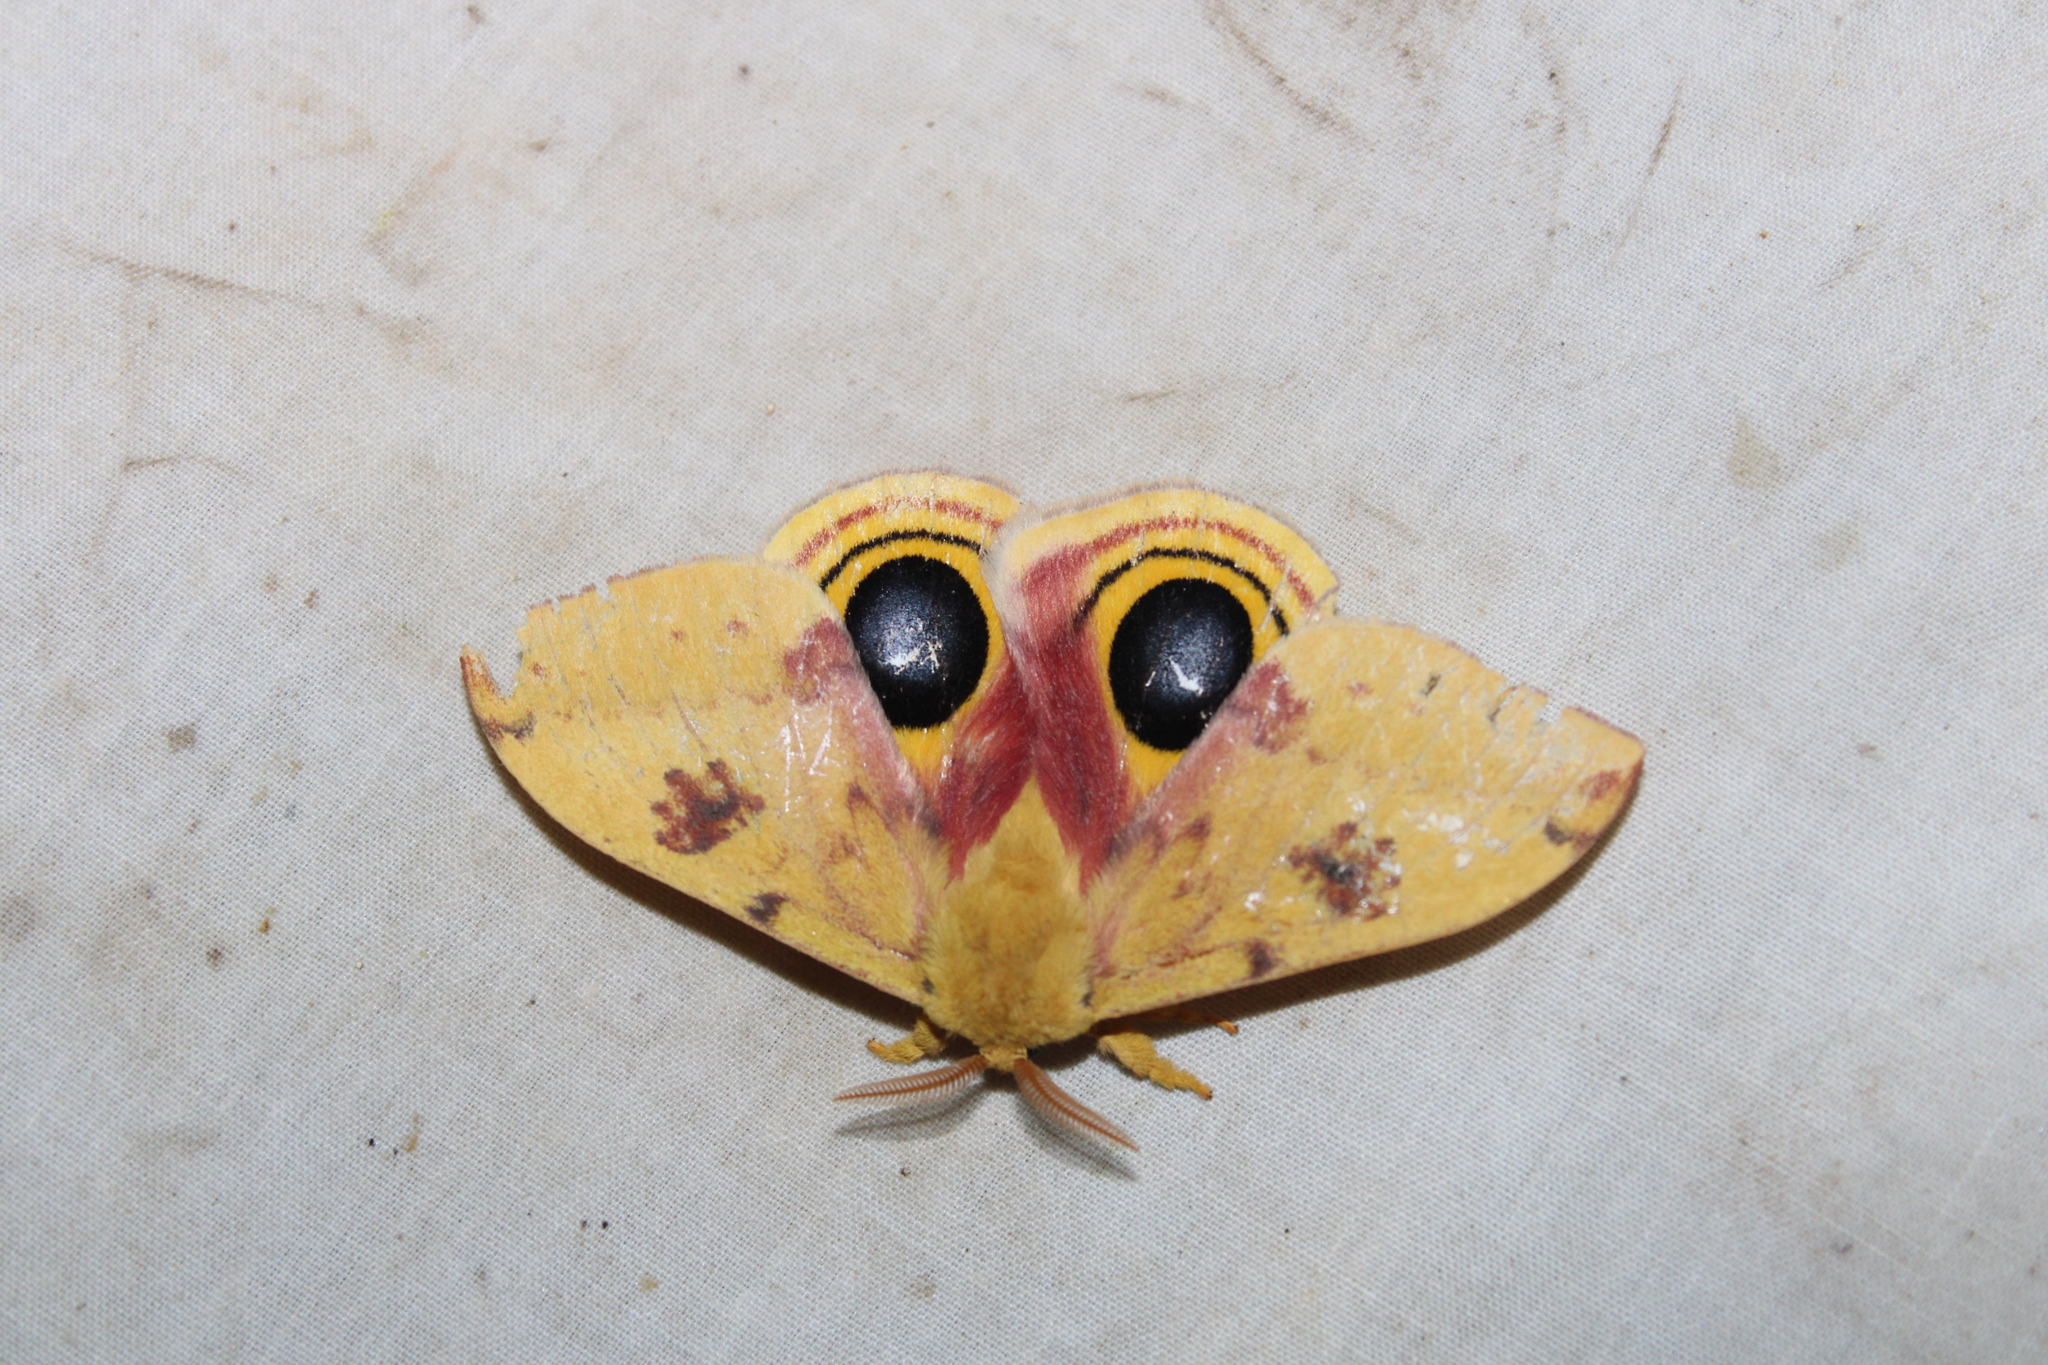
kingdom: Animalia
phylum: Arthropoda
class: Insecta
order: Lepidoptera
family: Saturniidae
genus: Automeris
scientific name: Automeris io
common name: Io moth
